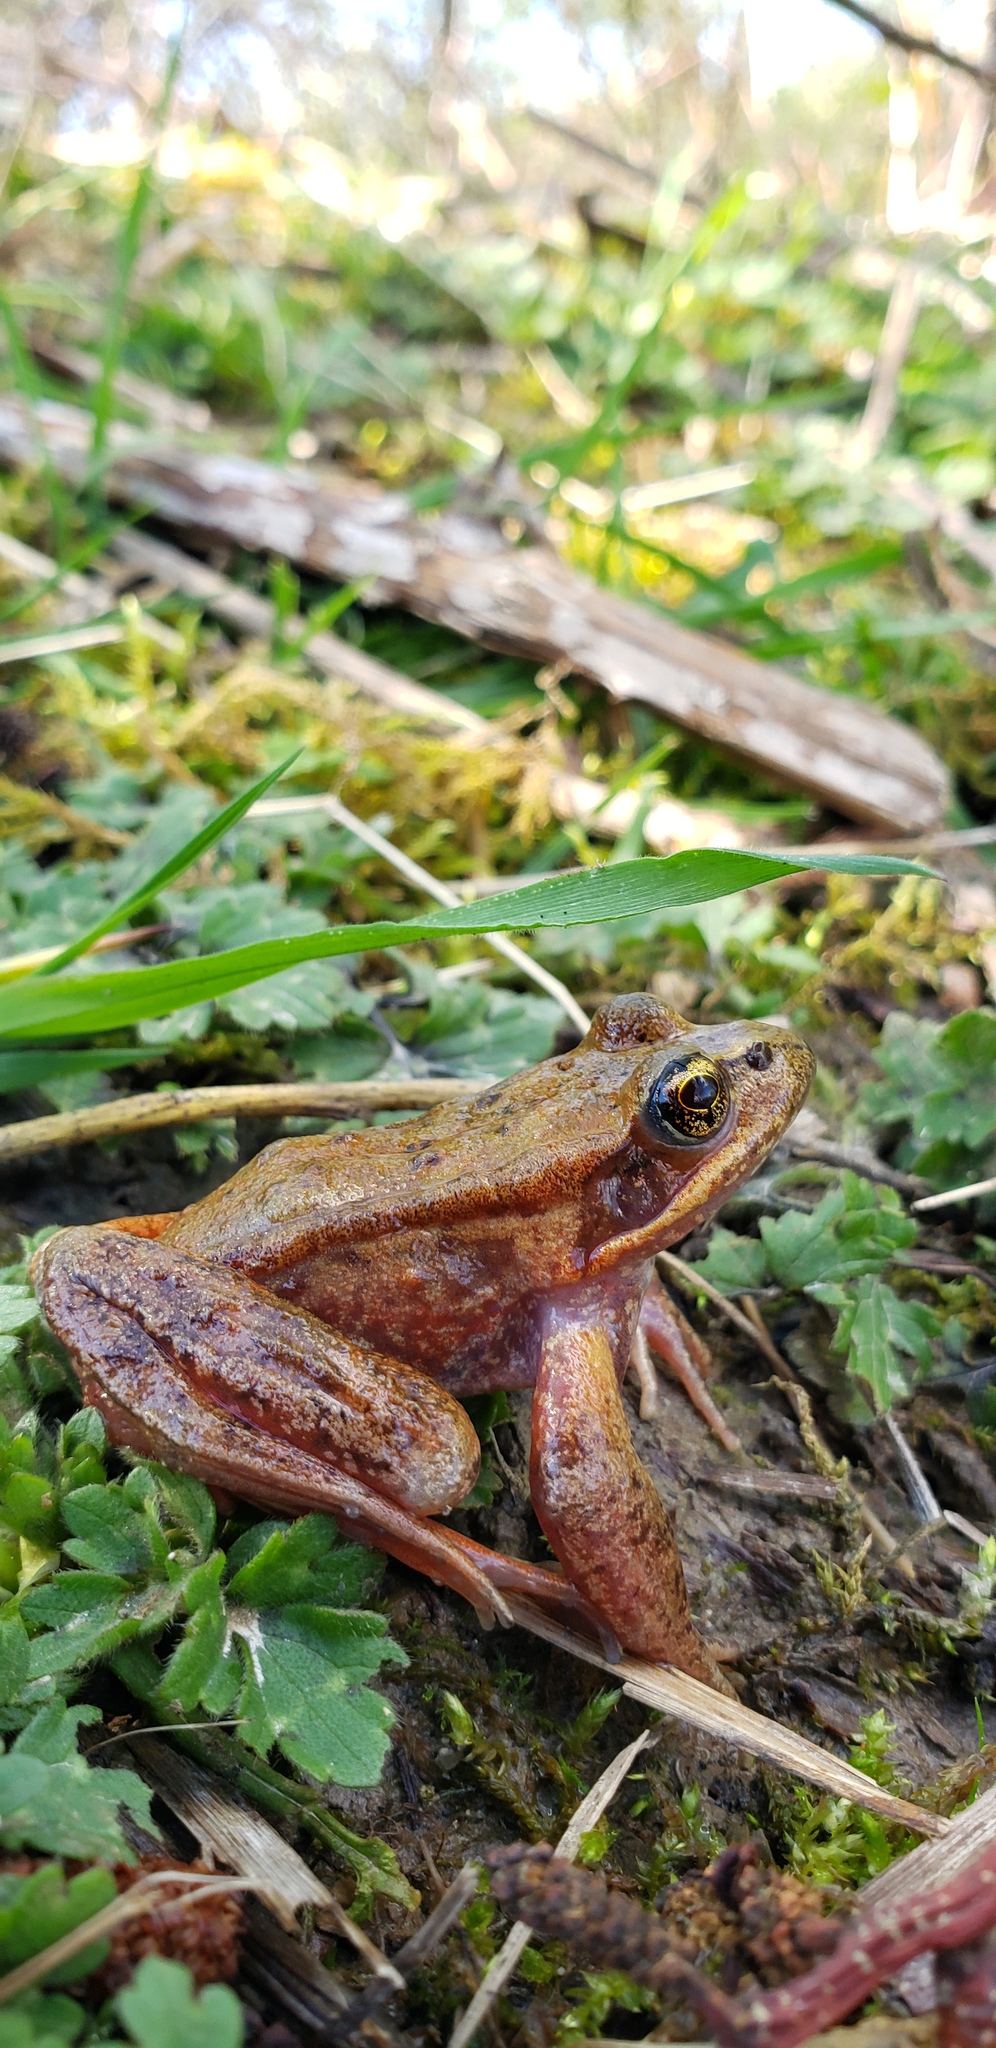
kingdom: Animalia
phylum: Chordata
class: Amphibia
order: Anura
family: Ranidae
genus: Rana
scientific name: Rana aurora
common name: Red-legged frog
